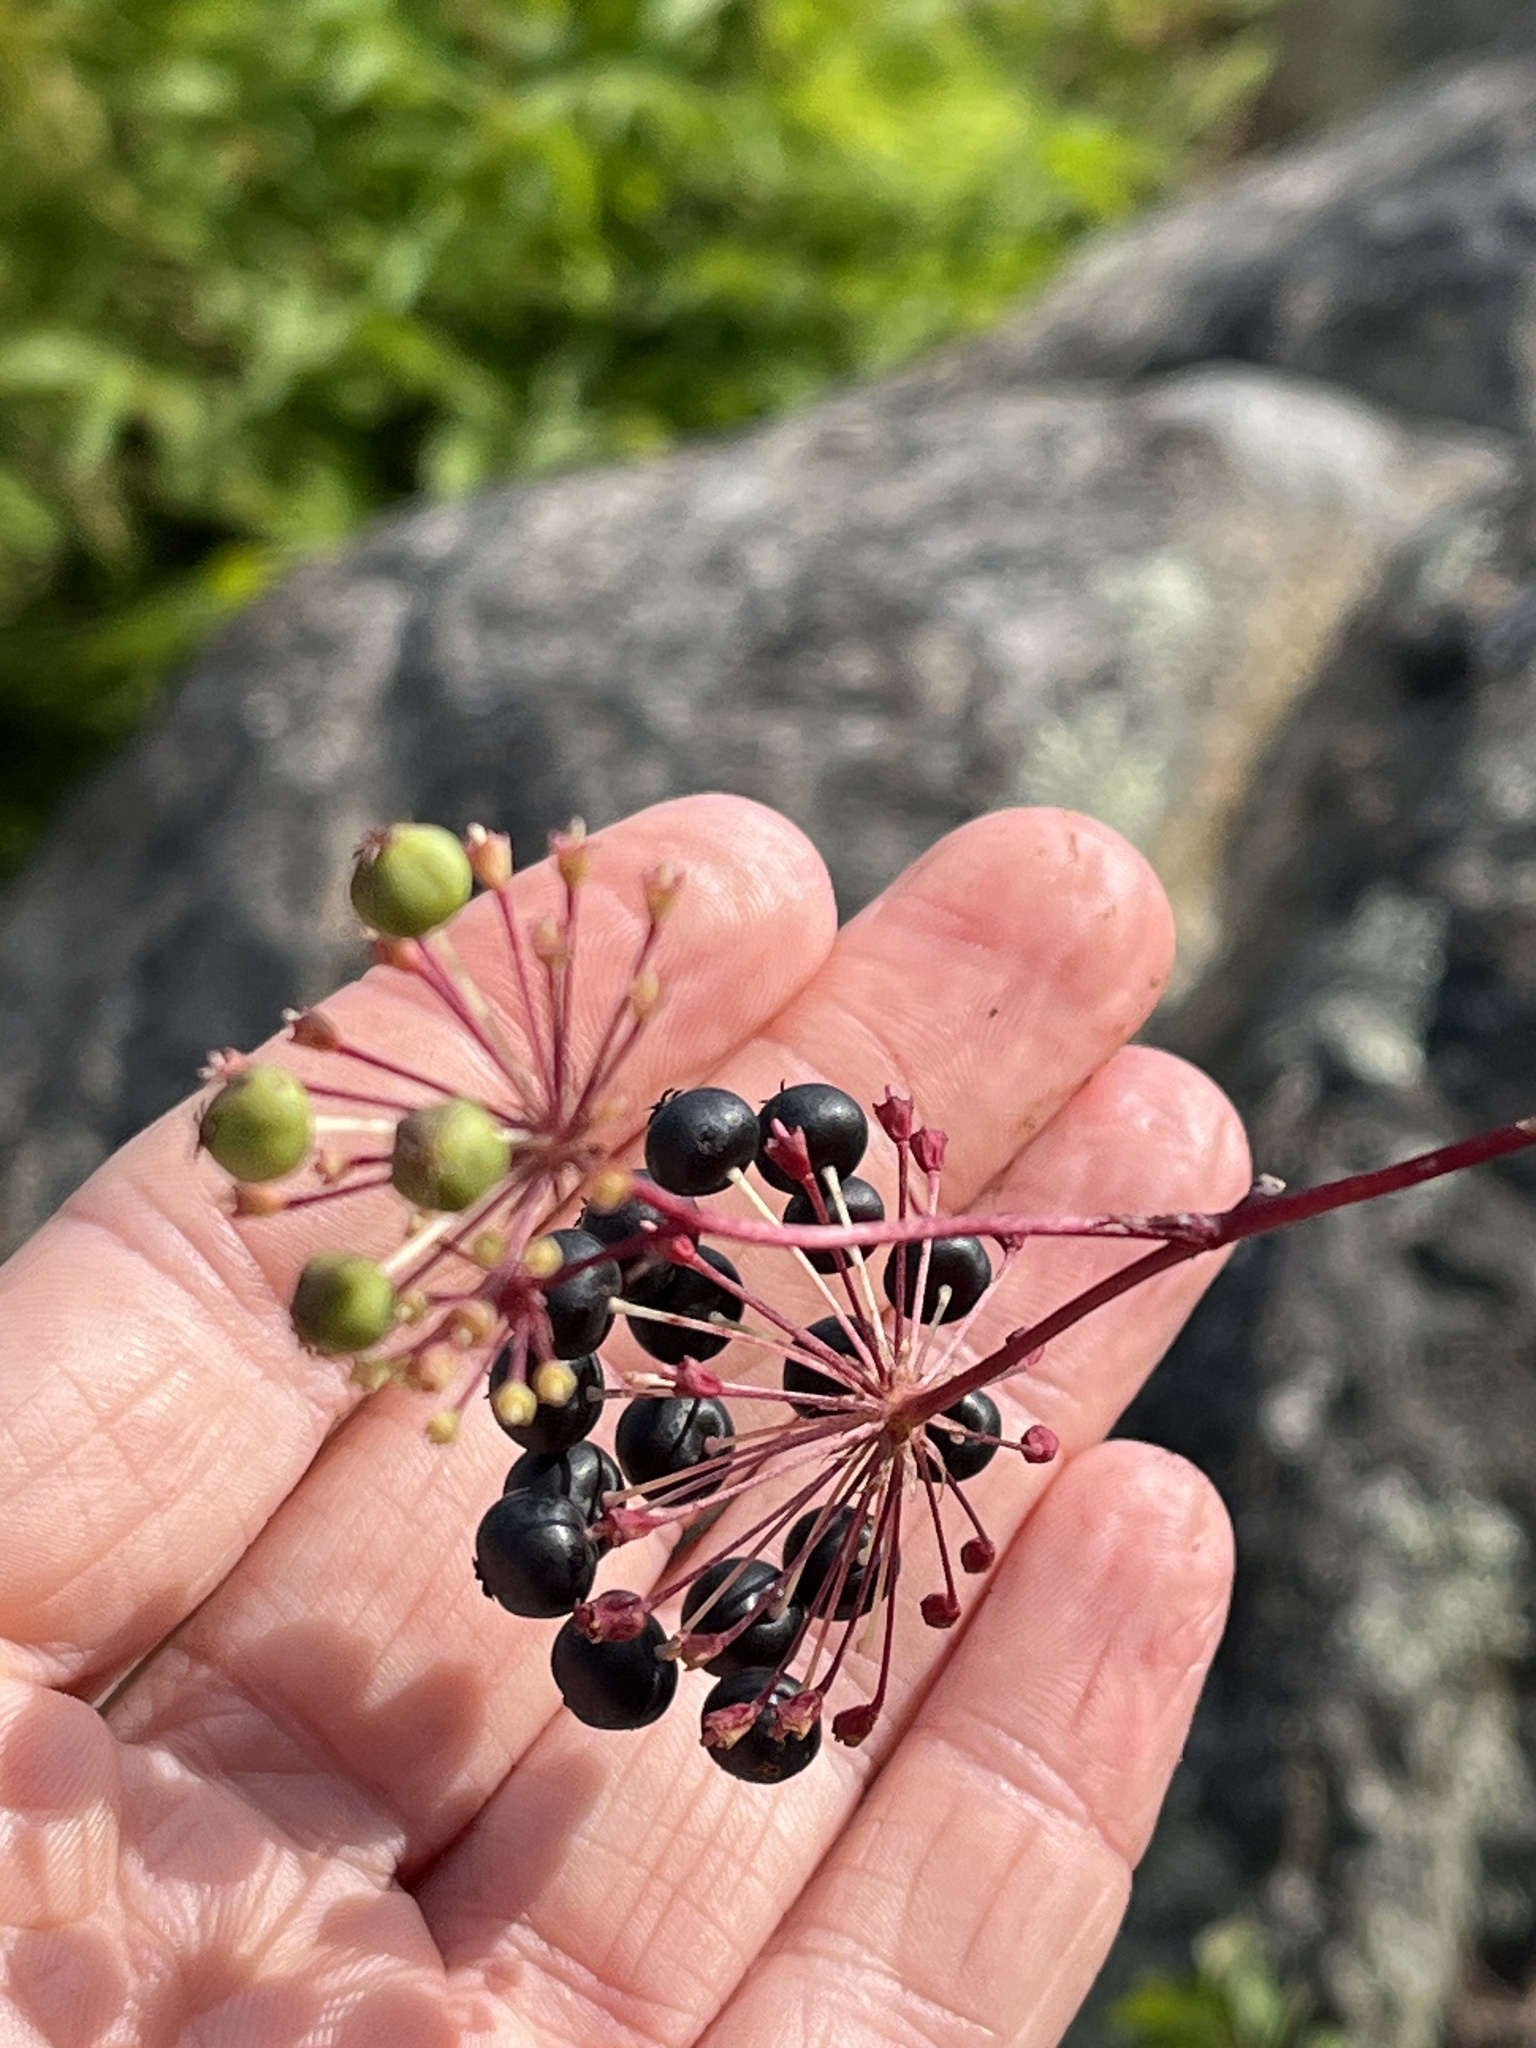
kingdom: Plantae
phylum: Tracheophyta
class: Magnoliopsida
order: Apiales
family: Araliaceae
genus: Aralia
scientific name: Aralia hispida
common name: Bristly sarsaparilla
